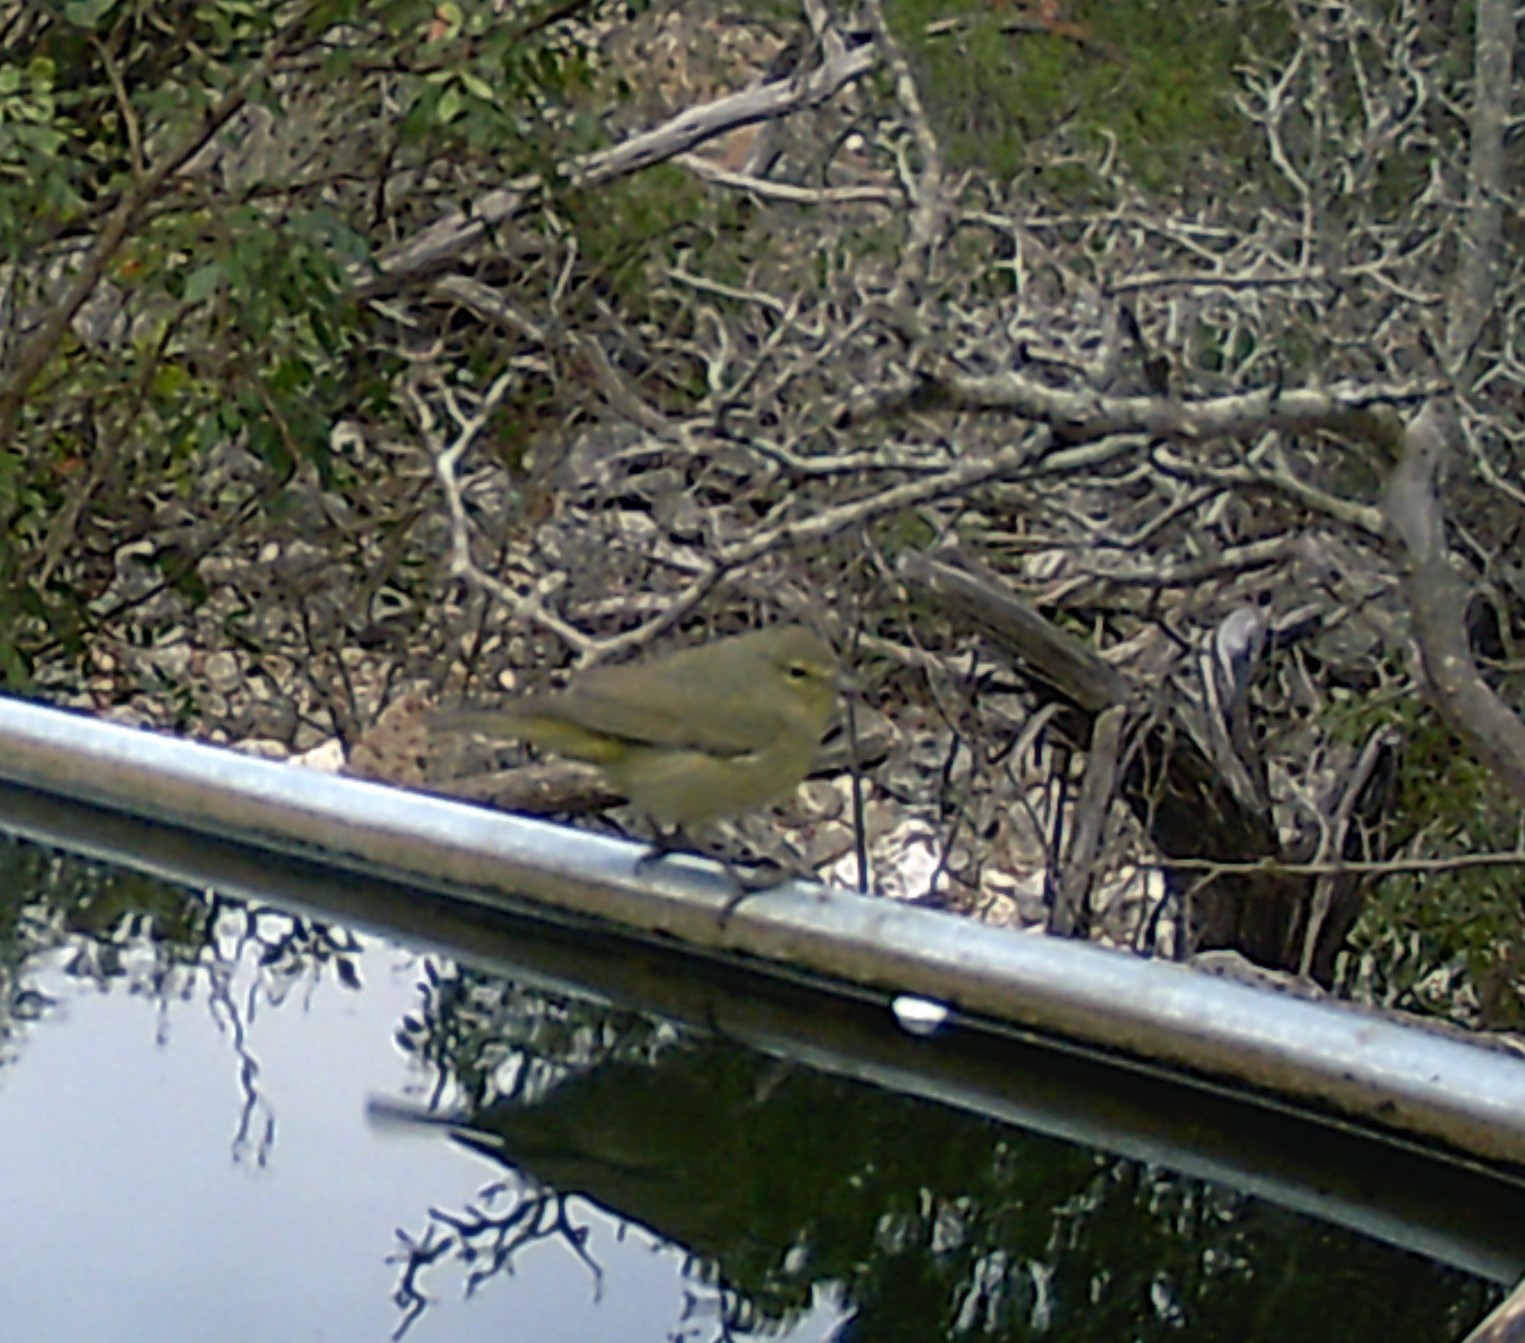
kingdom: Animalia
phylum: Chordata
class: Aves
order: Passeriformes
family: Parulidae
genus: Leiothlypis
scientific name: Leiothlypis celata
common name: Orange-crowned warbler
